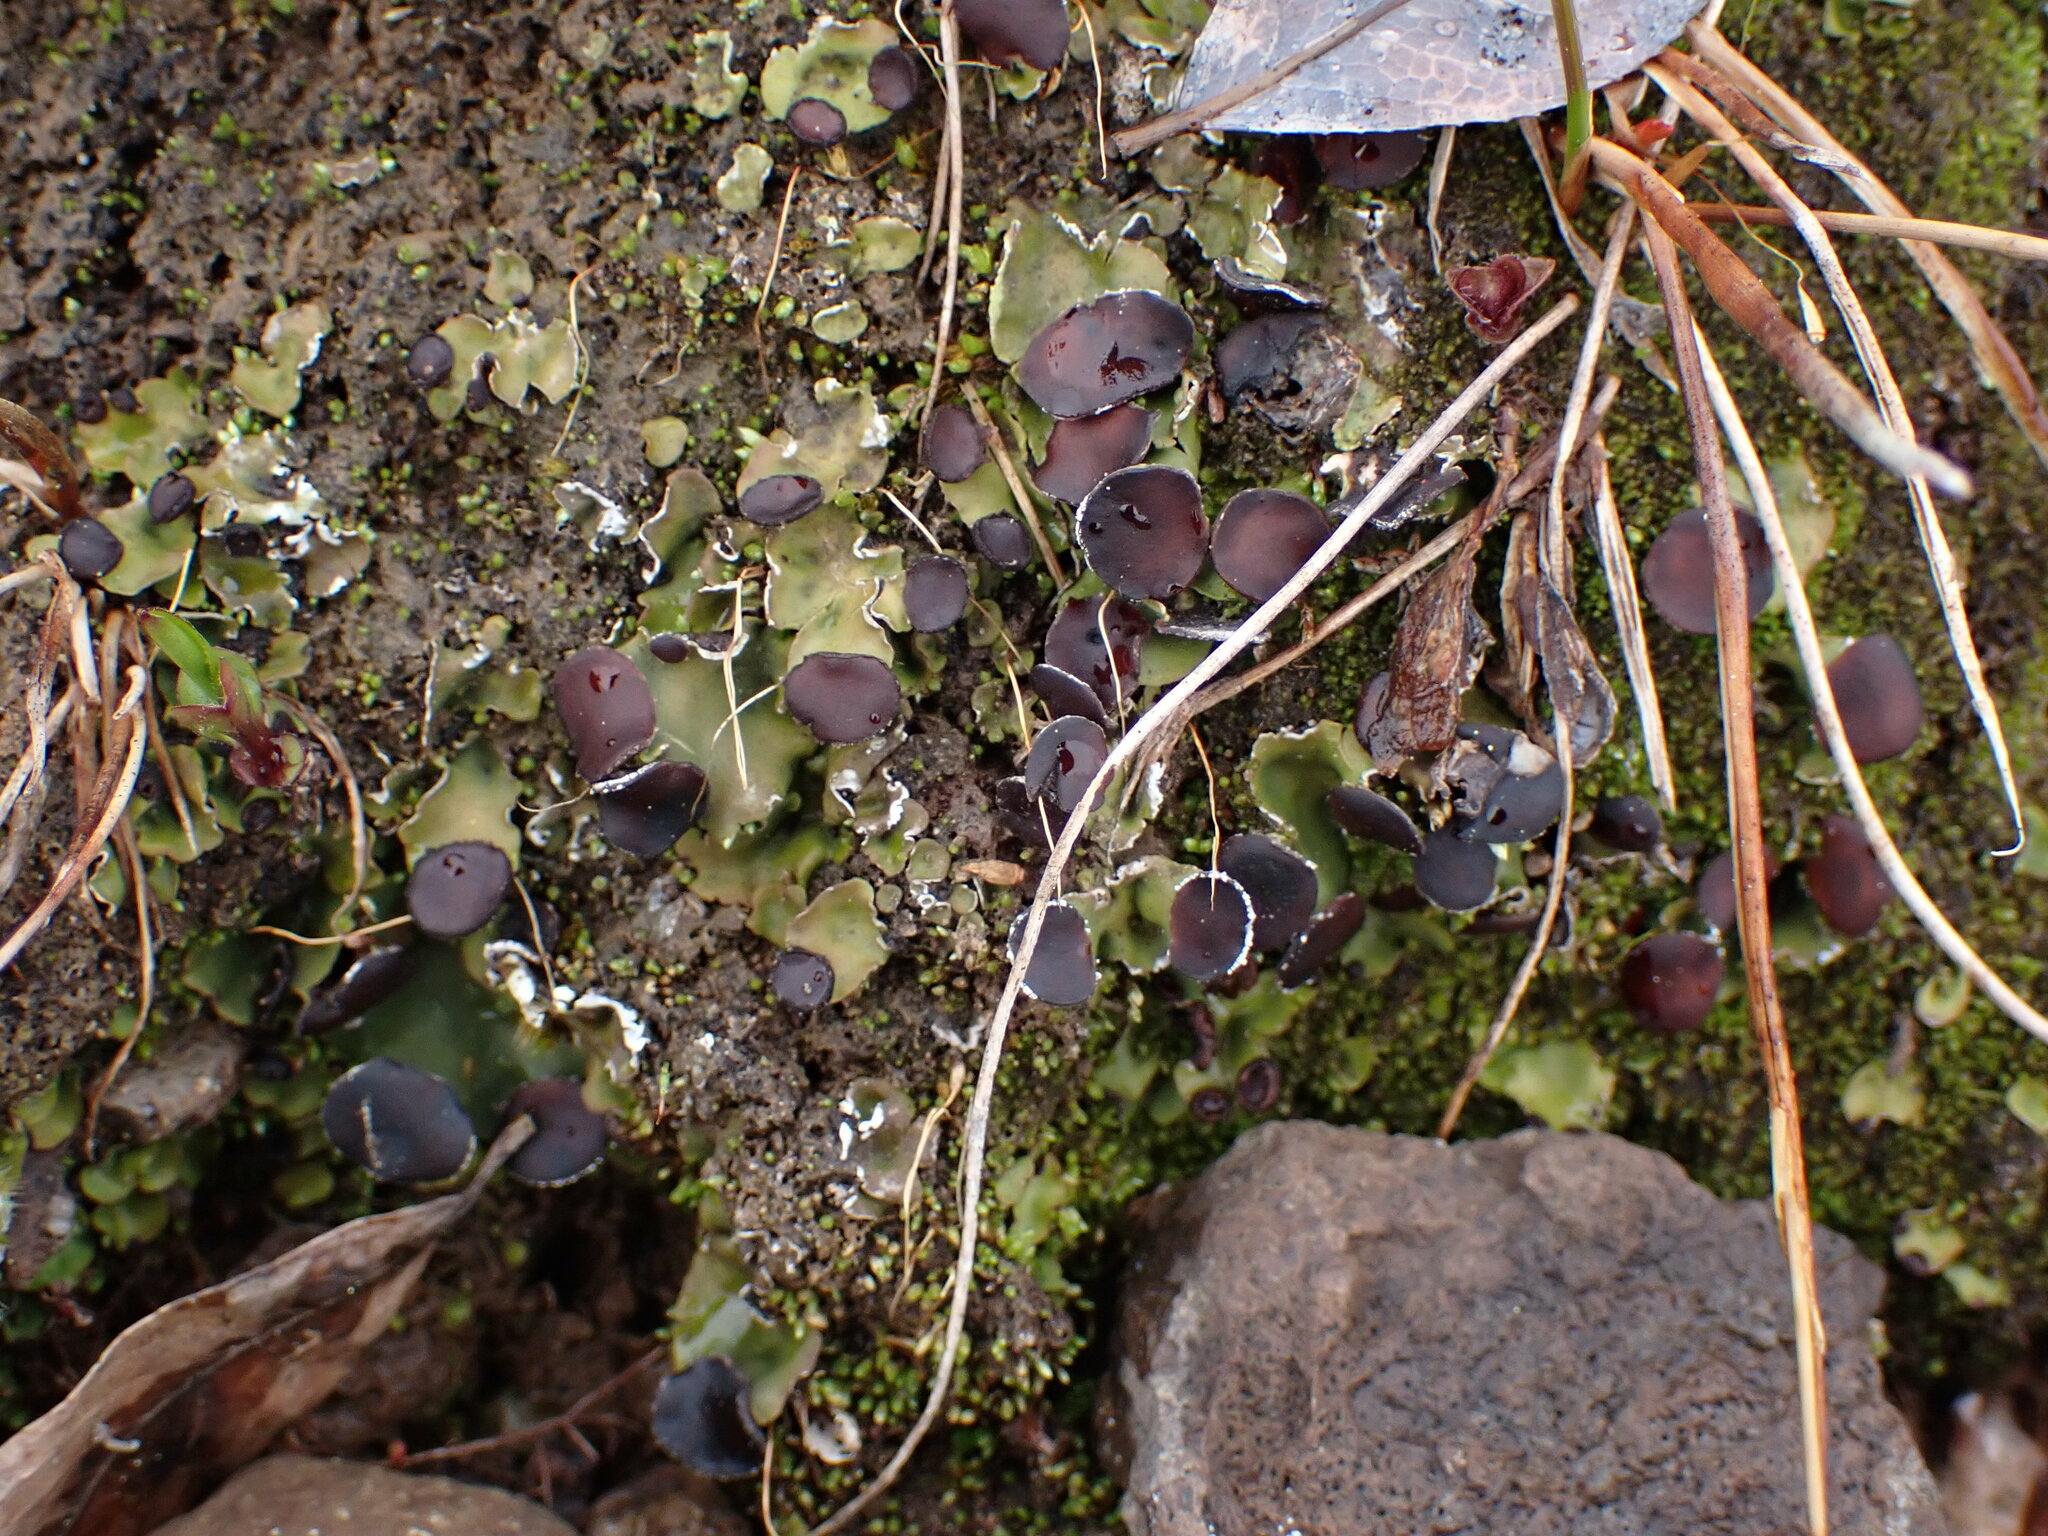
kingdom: Fungi
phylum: Ascomycota
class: Lecanoromycetes
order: Peltigerales
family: Peltigeraceae
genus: Peltigera
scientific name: Peltigera venosa
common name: Pixie gowns lichen
